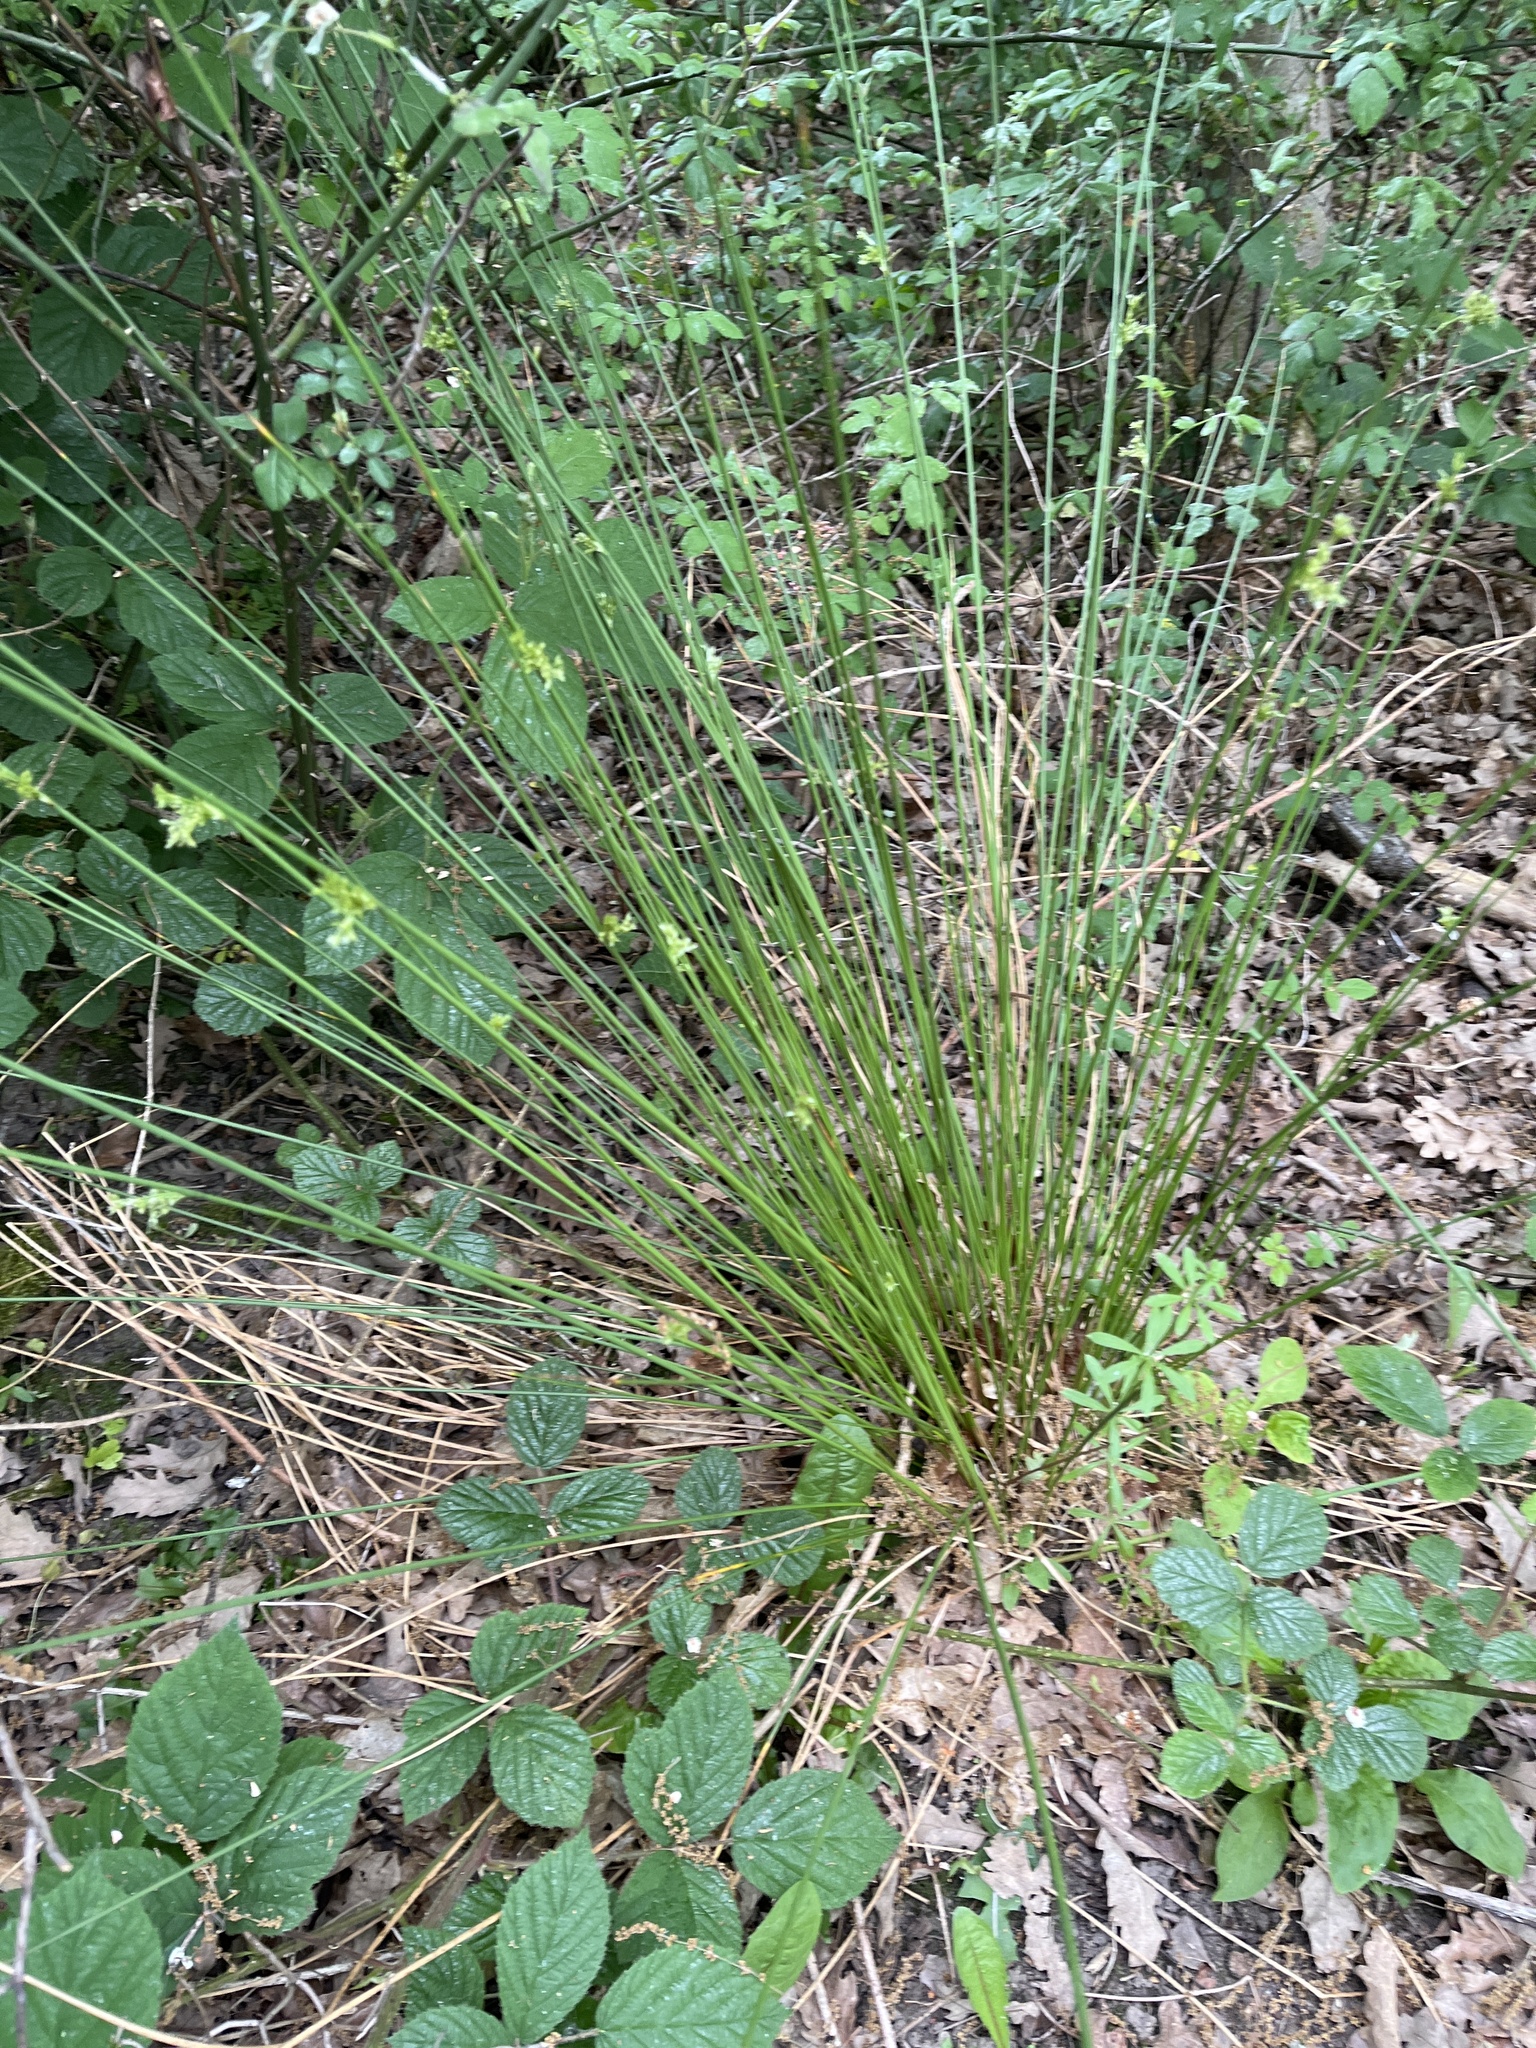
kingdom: Plantae
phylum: Tracheophyta
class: Liliopsida
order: Poales
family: Juncaceae
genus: Juncus
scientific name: Juncus effusus
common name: Soft rush
